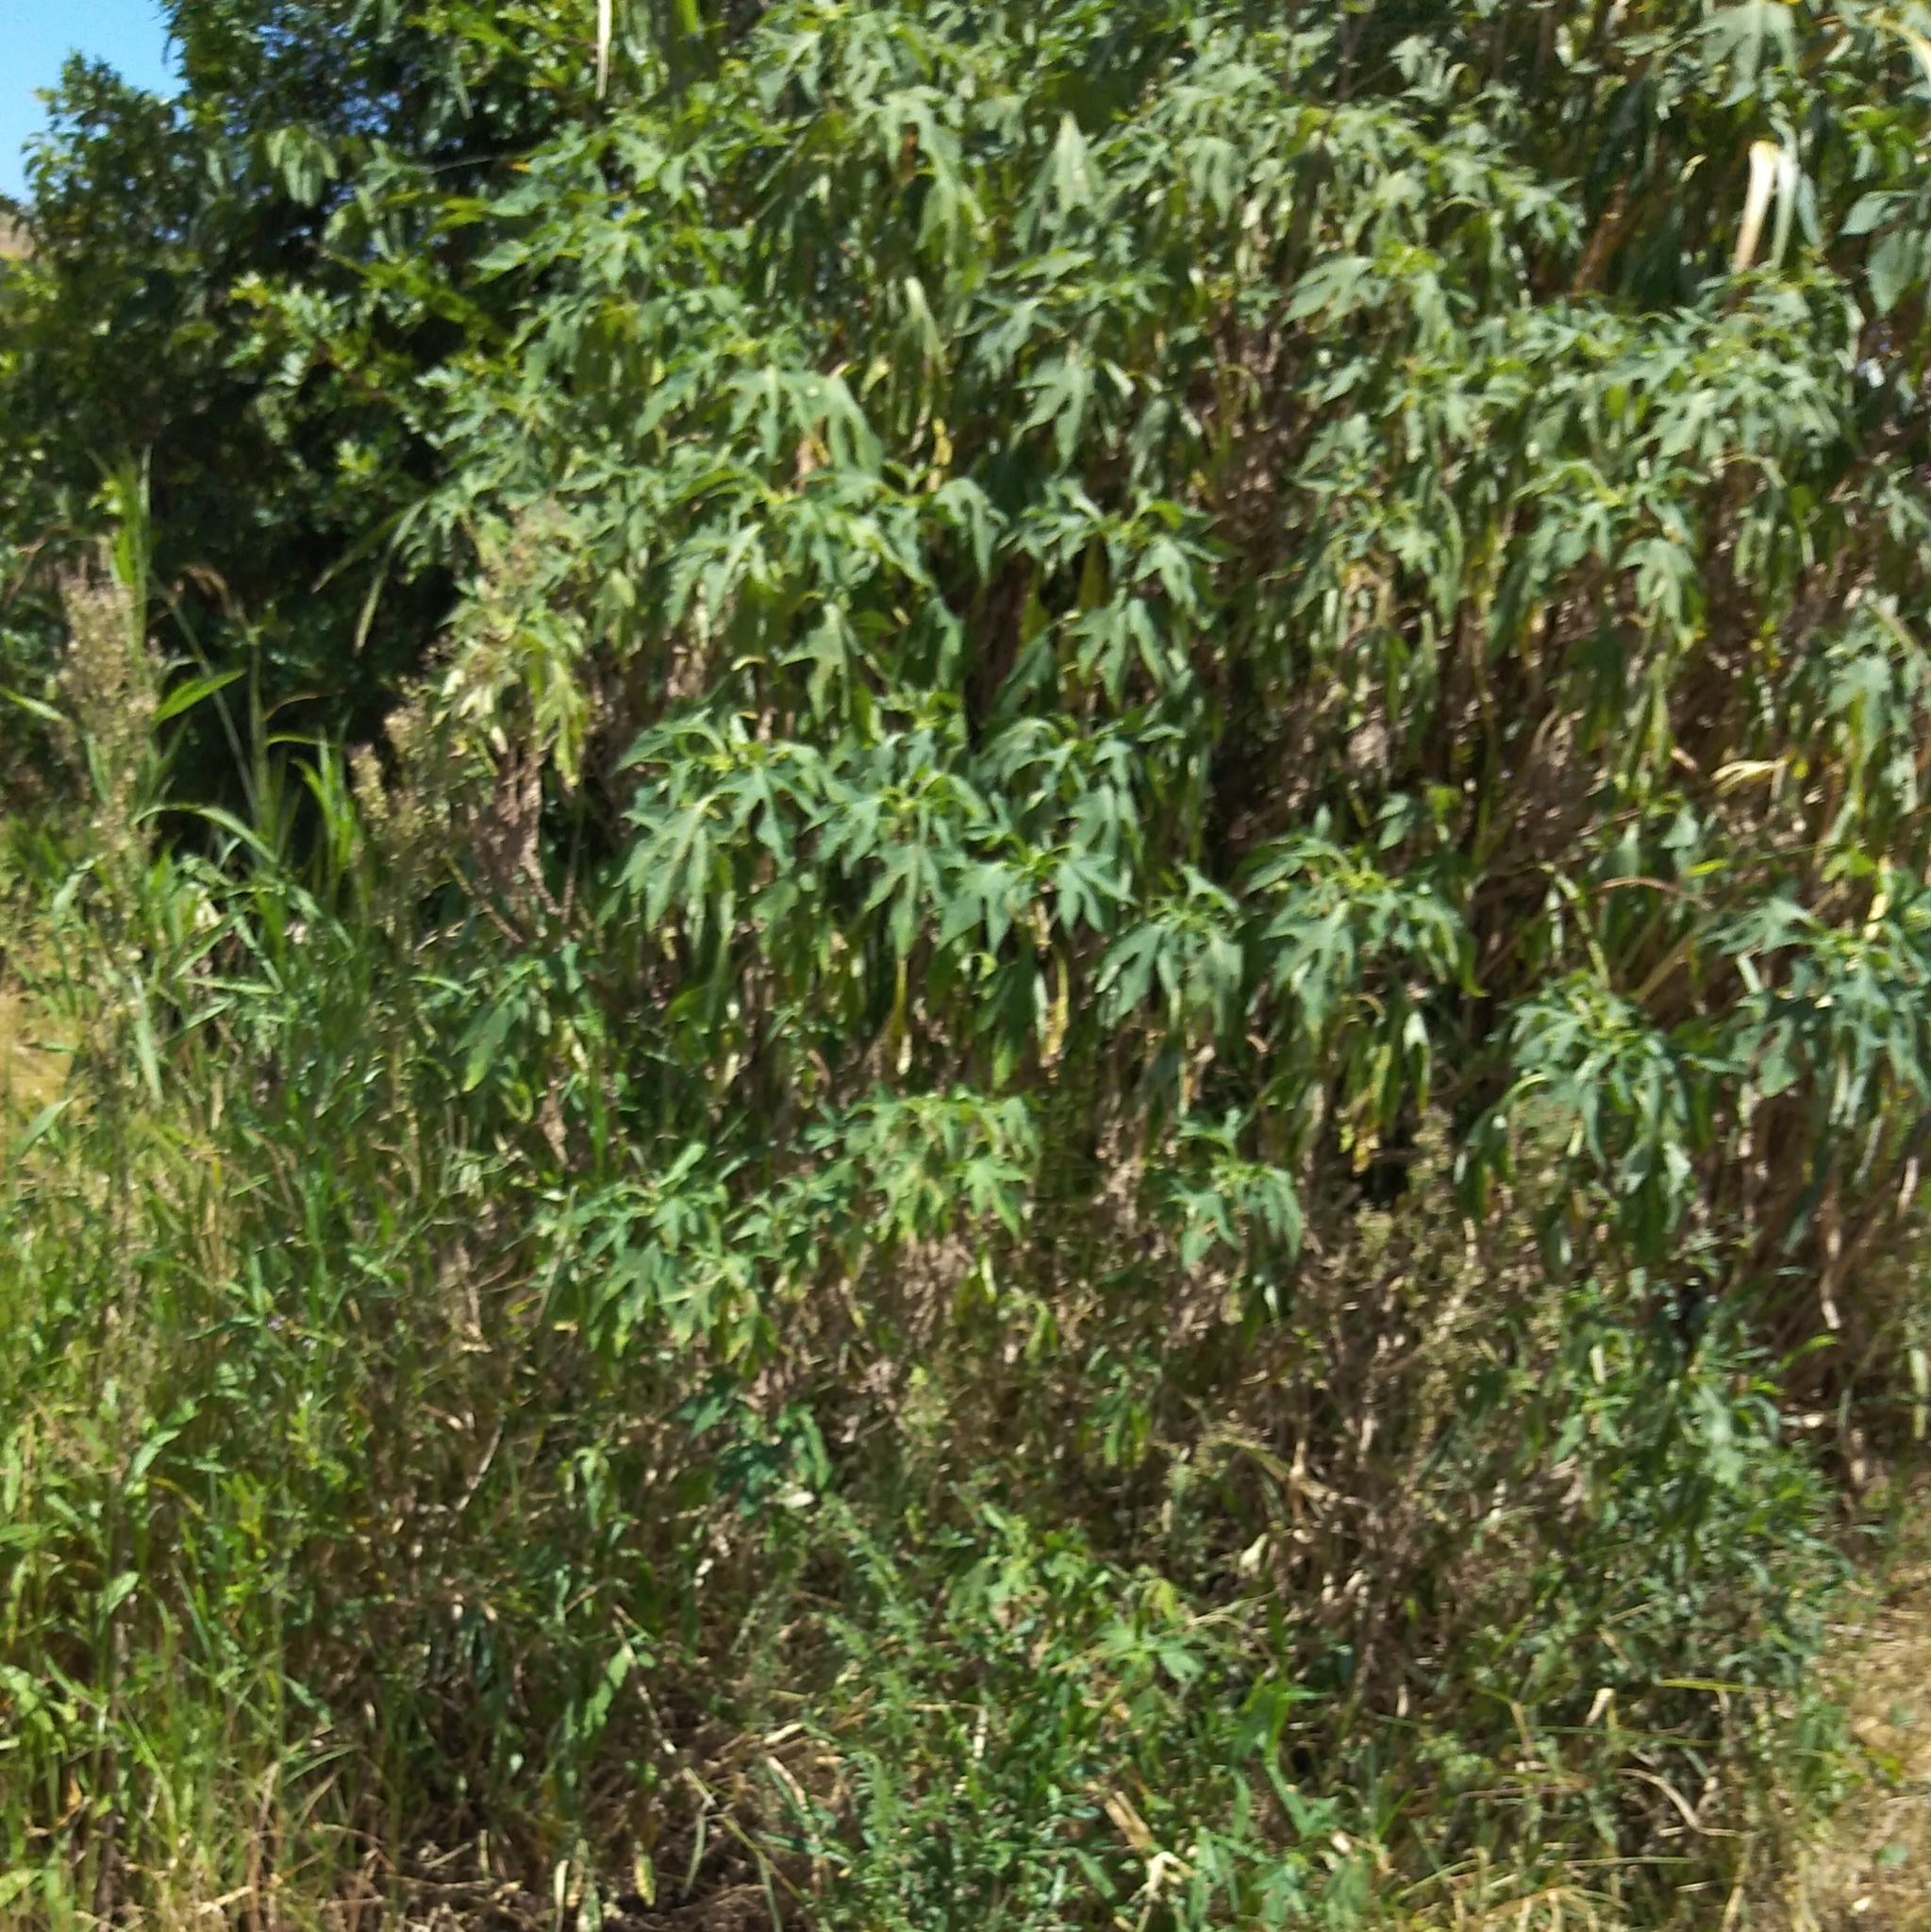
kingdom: Plantae
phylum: Tracheophyta
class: Magnoliopsida
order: Asterales
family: Asteraceae
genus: Tithonia
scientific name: Tithonia diversifolia
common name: Tree marigold
